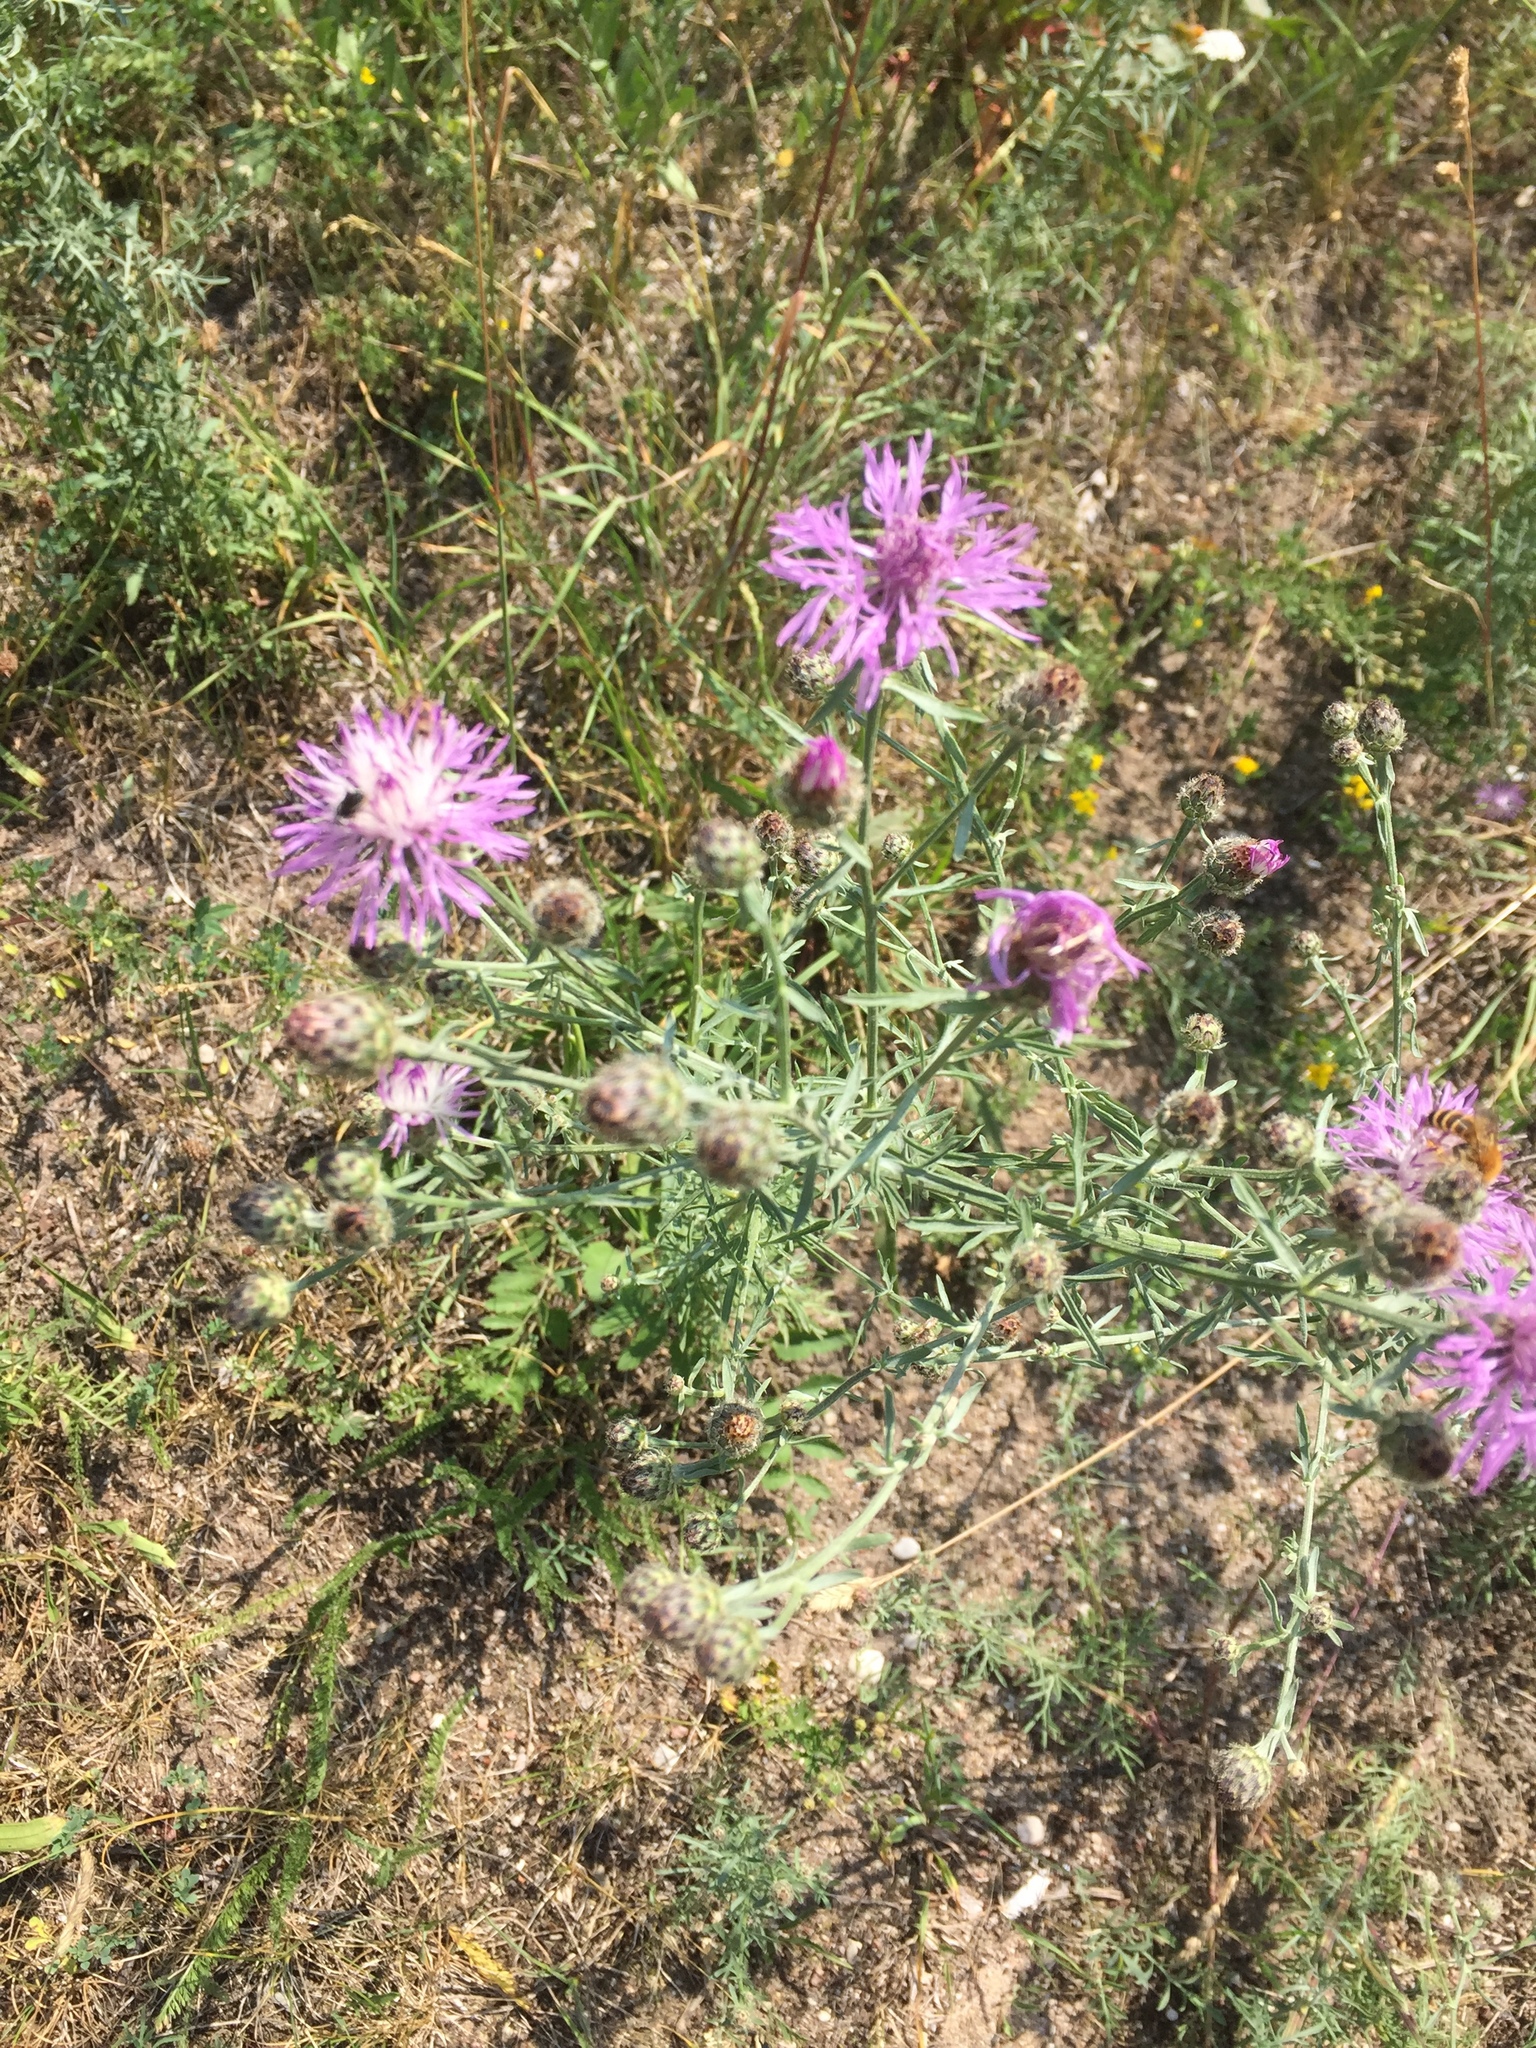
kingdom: Plantae
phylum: Tracheophyta
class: Magnoliopsida
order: Asterales
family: Asteraceae
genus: Centaurea
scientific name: Centaurea stoebe
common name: Spotted knapweed
